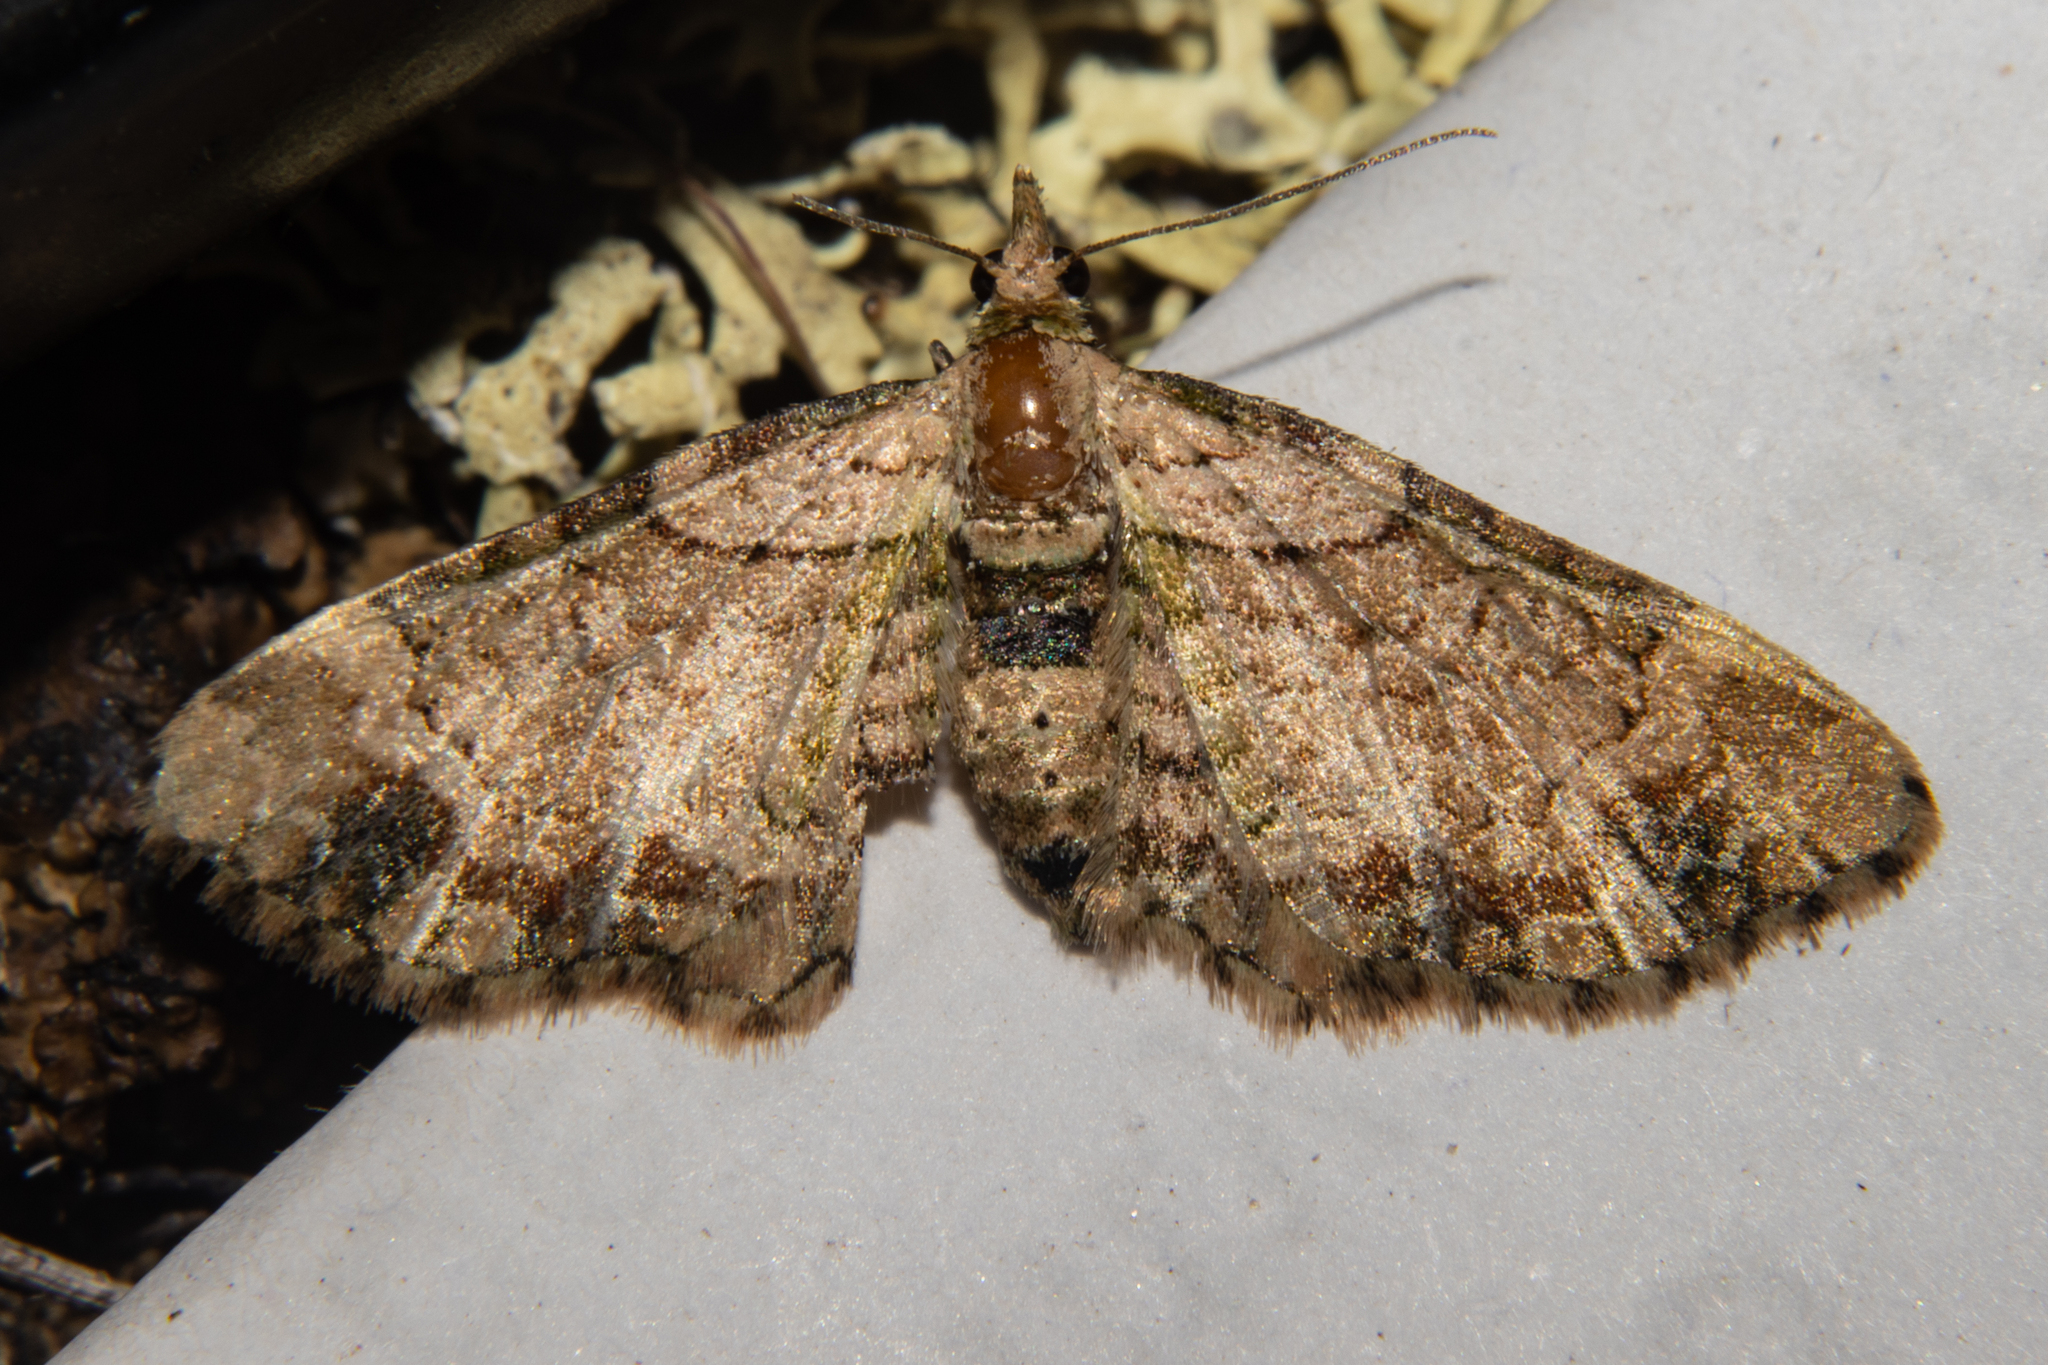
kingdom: Animalia
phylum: Arthropoda
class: Insecta
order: Lepidoptera
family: Geometridae
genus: Chloroclystis
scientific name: Chloroclystis
